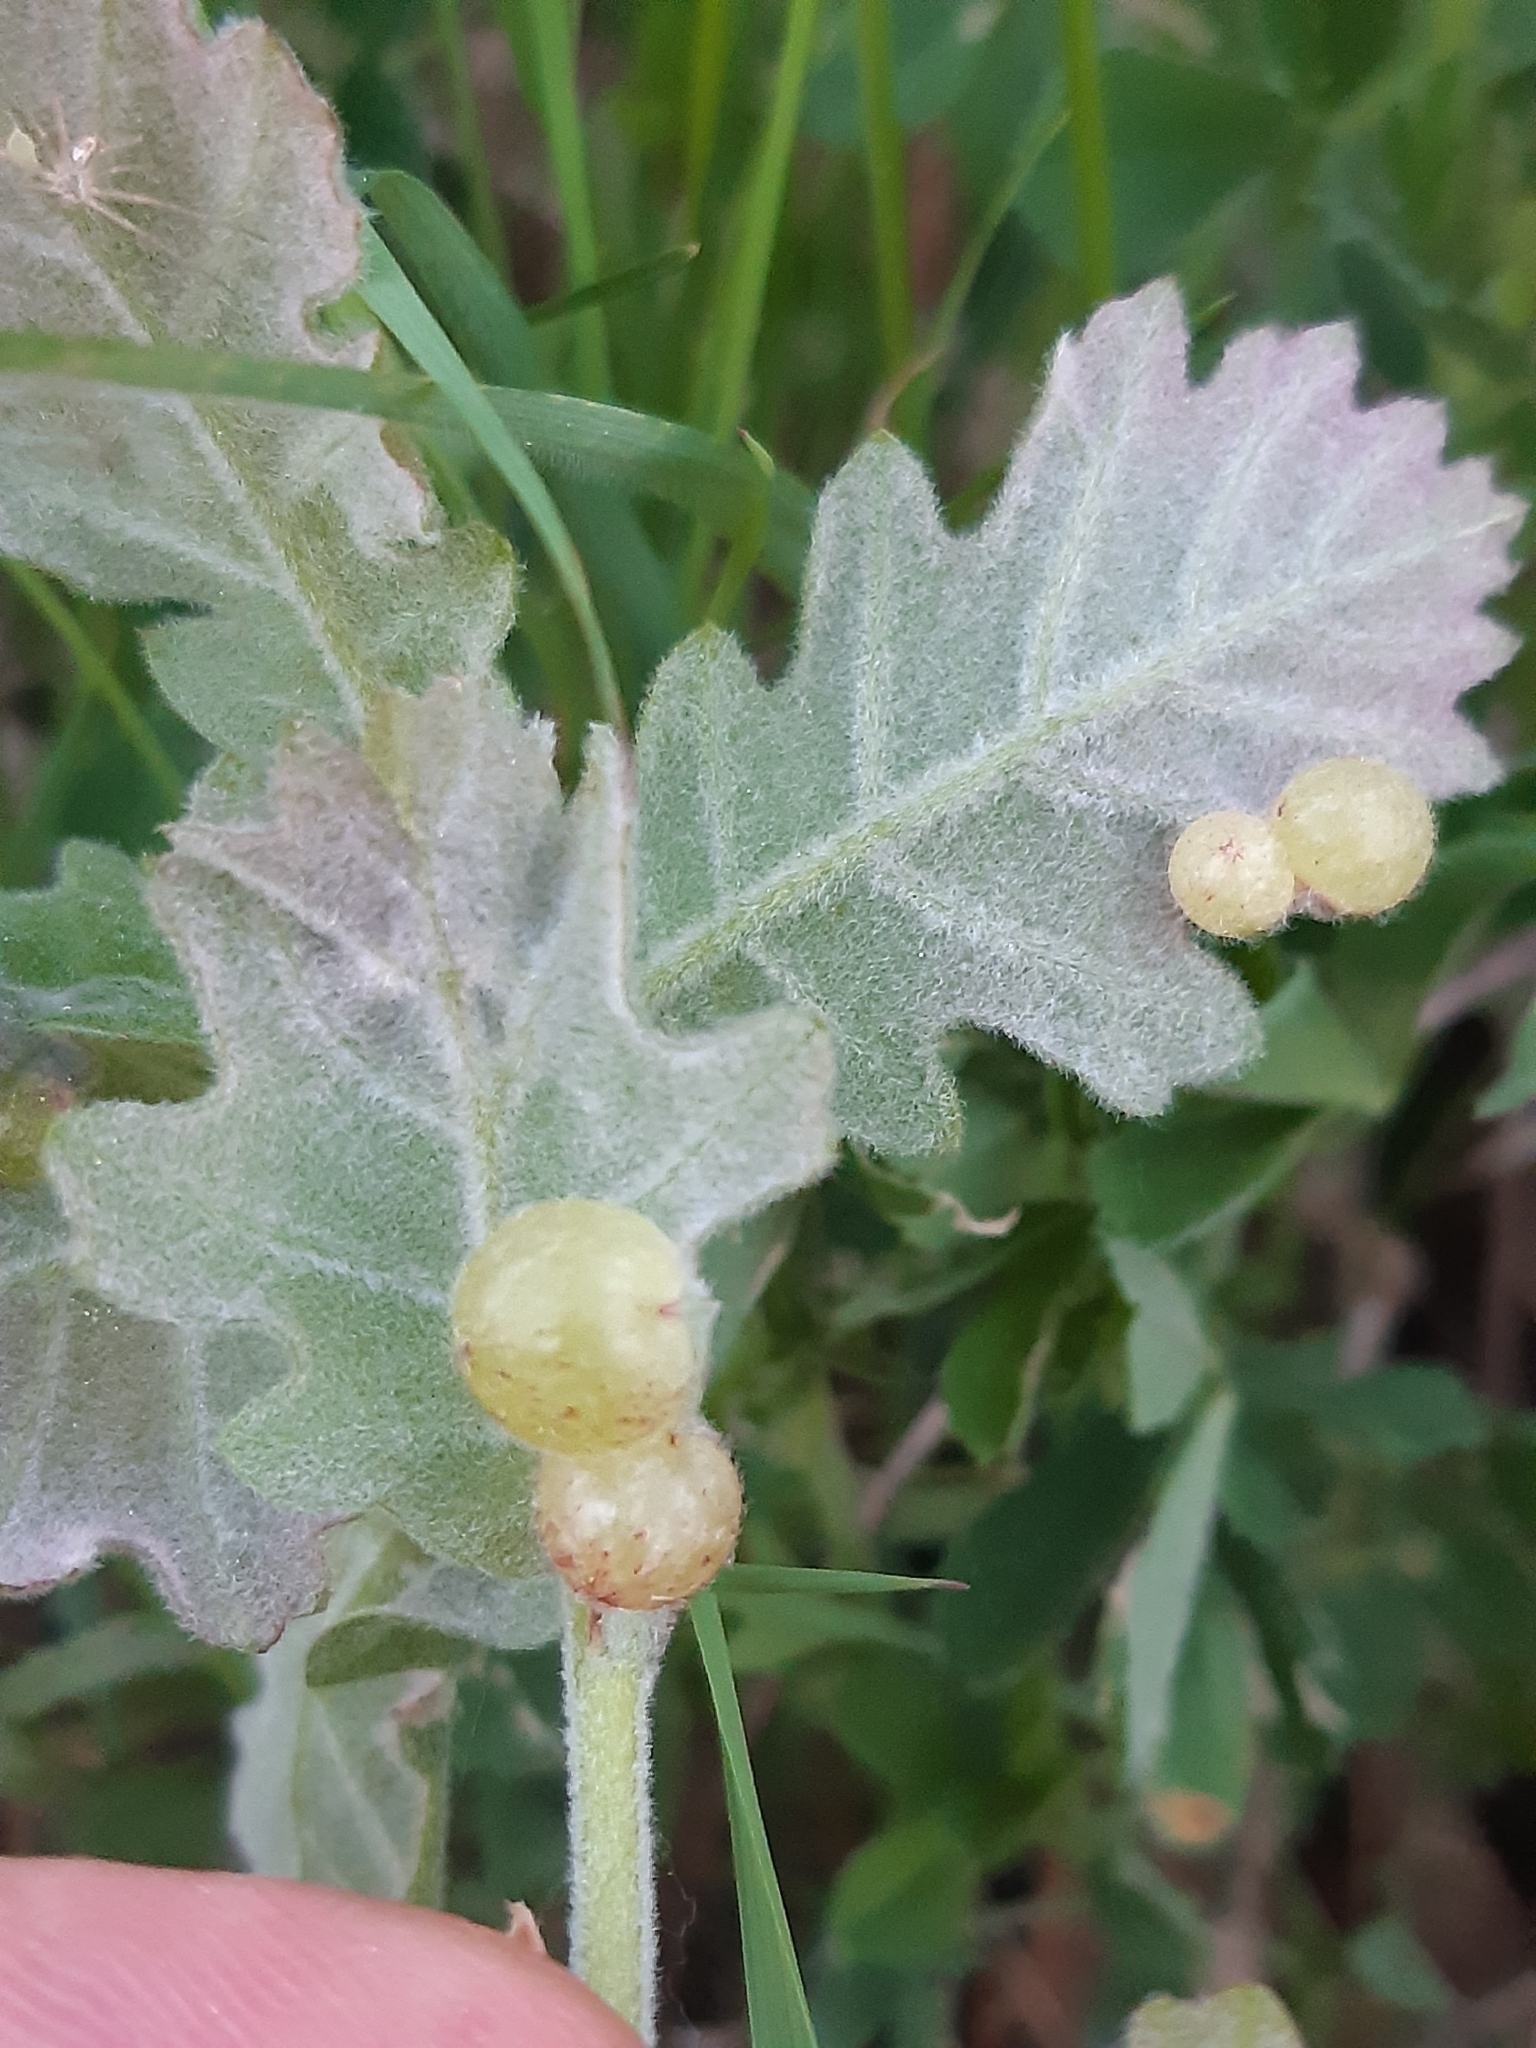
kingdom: Animalia
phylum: Arthropoda
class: Insecta
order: Hymenoptera
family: Cynipidae
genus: Neuroterus
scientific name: Neuroterus quercusbaccarum
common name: Common spangle gall
